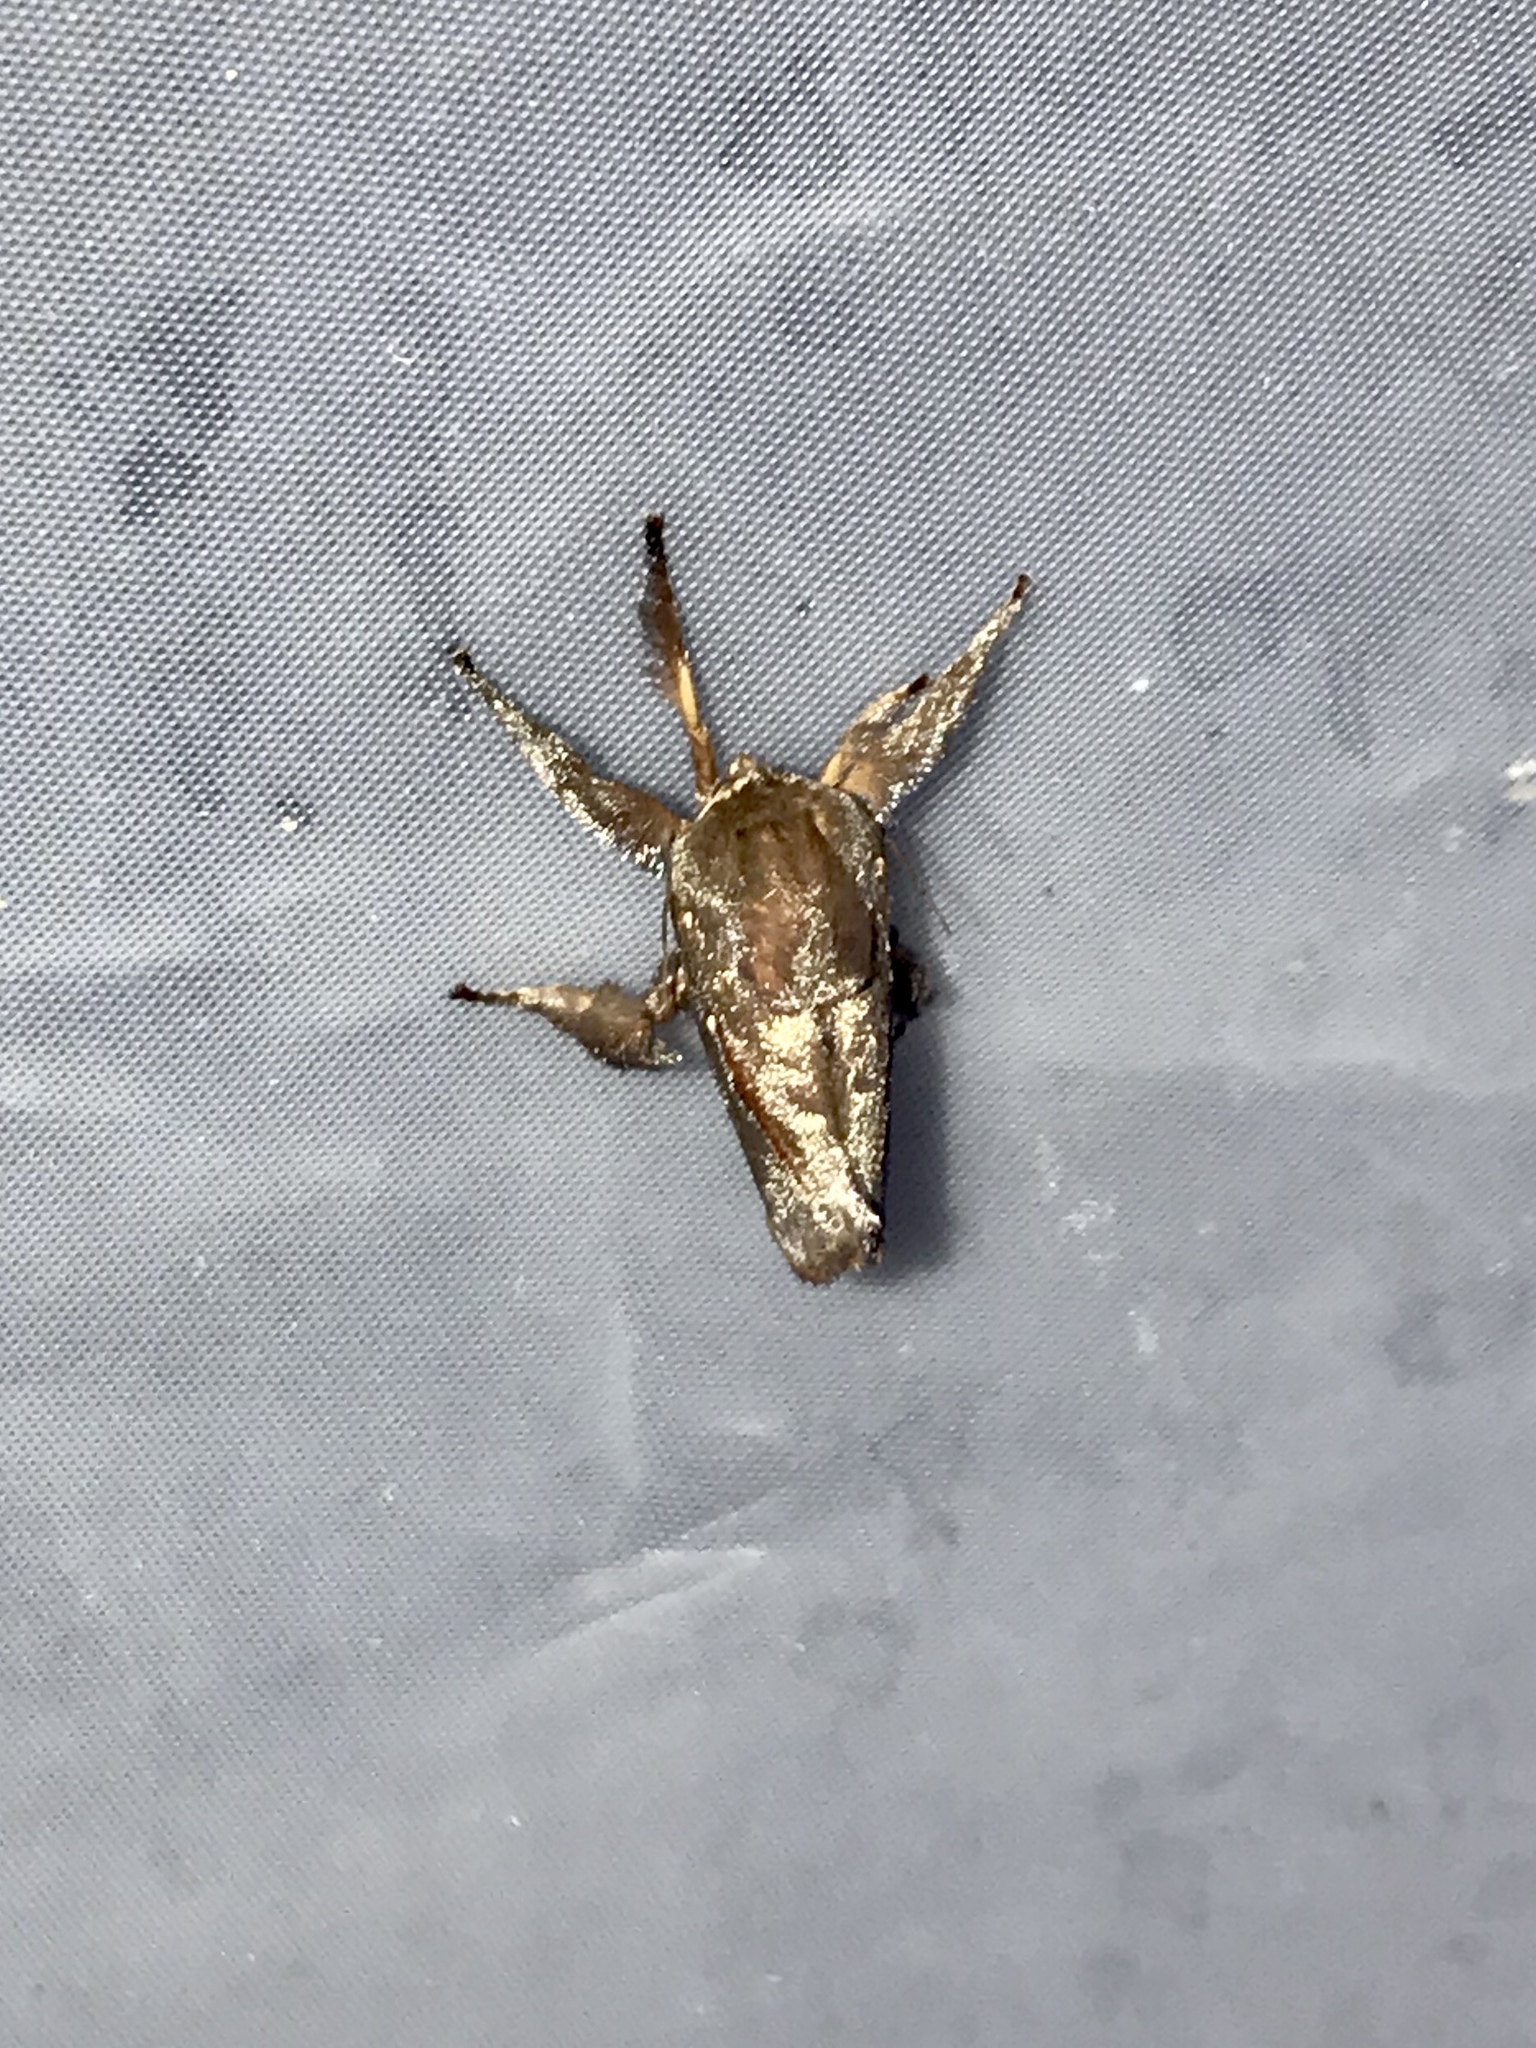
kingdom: Animalia
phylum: Arthropoda
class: Insecta
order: Lepidoptera
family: Limacodidae
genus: Acharia
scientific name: Acharia stimulea
